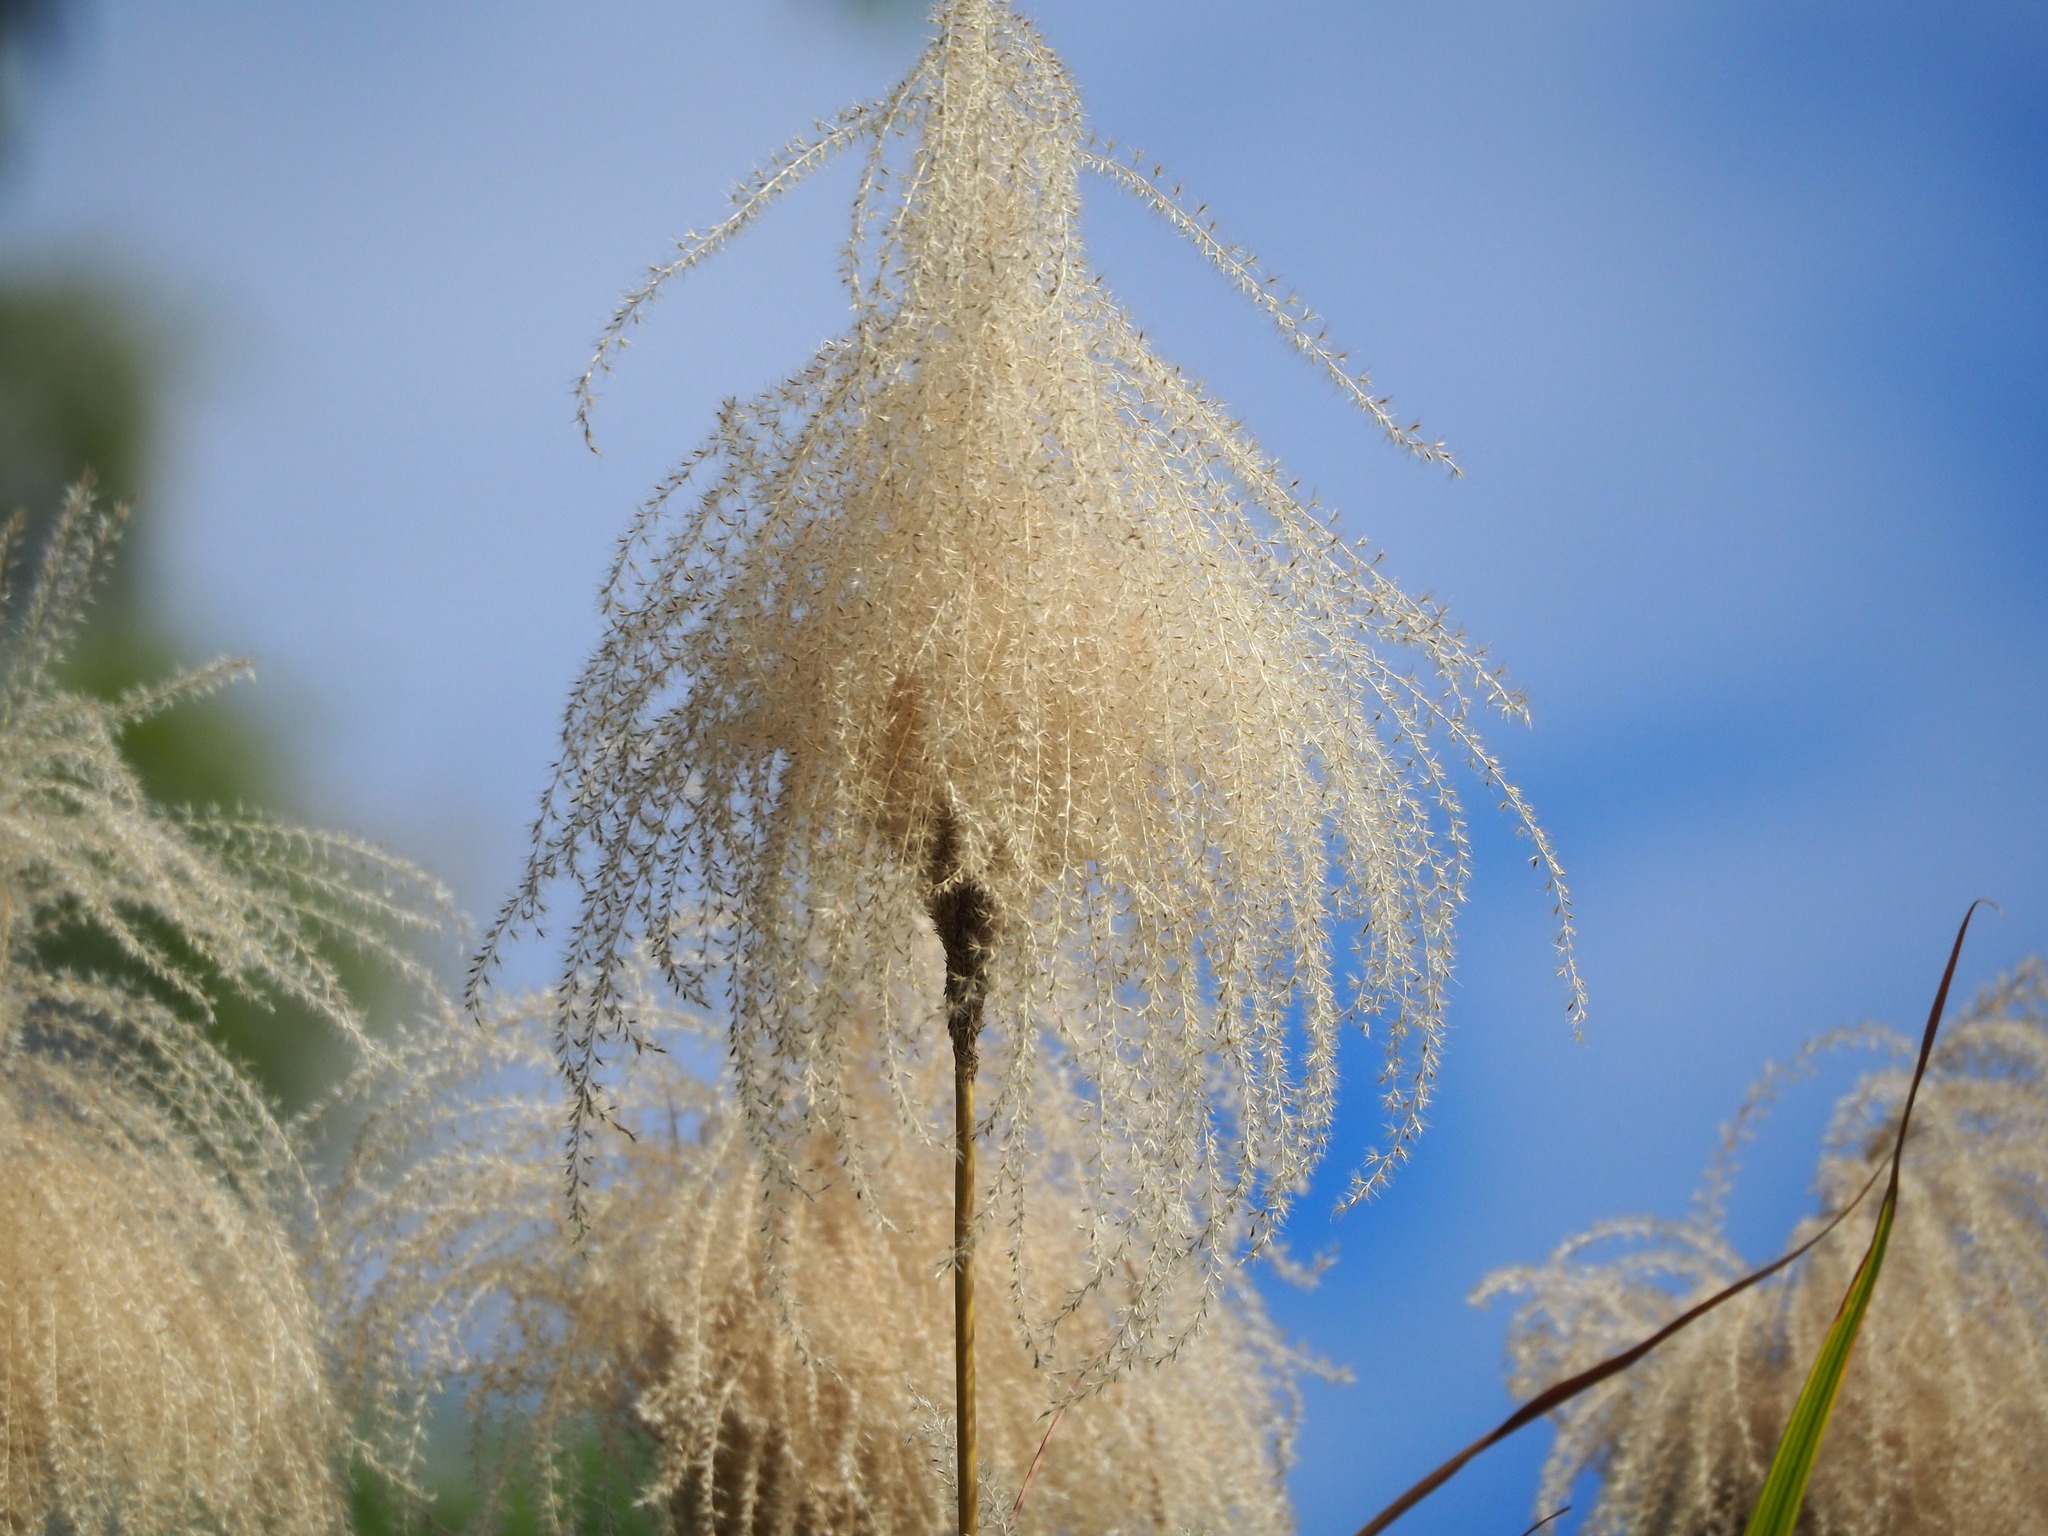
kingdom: Plantae
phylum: Tracheophyta
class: Liliopsida
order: Poales
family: Poaceae
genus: Miscanthus
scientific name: Miscanthus sinensis
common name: Chinese silvergrass
